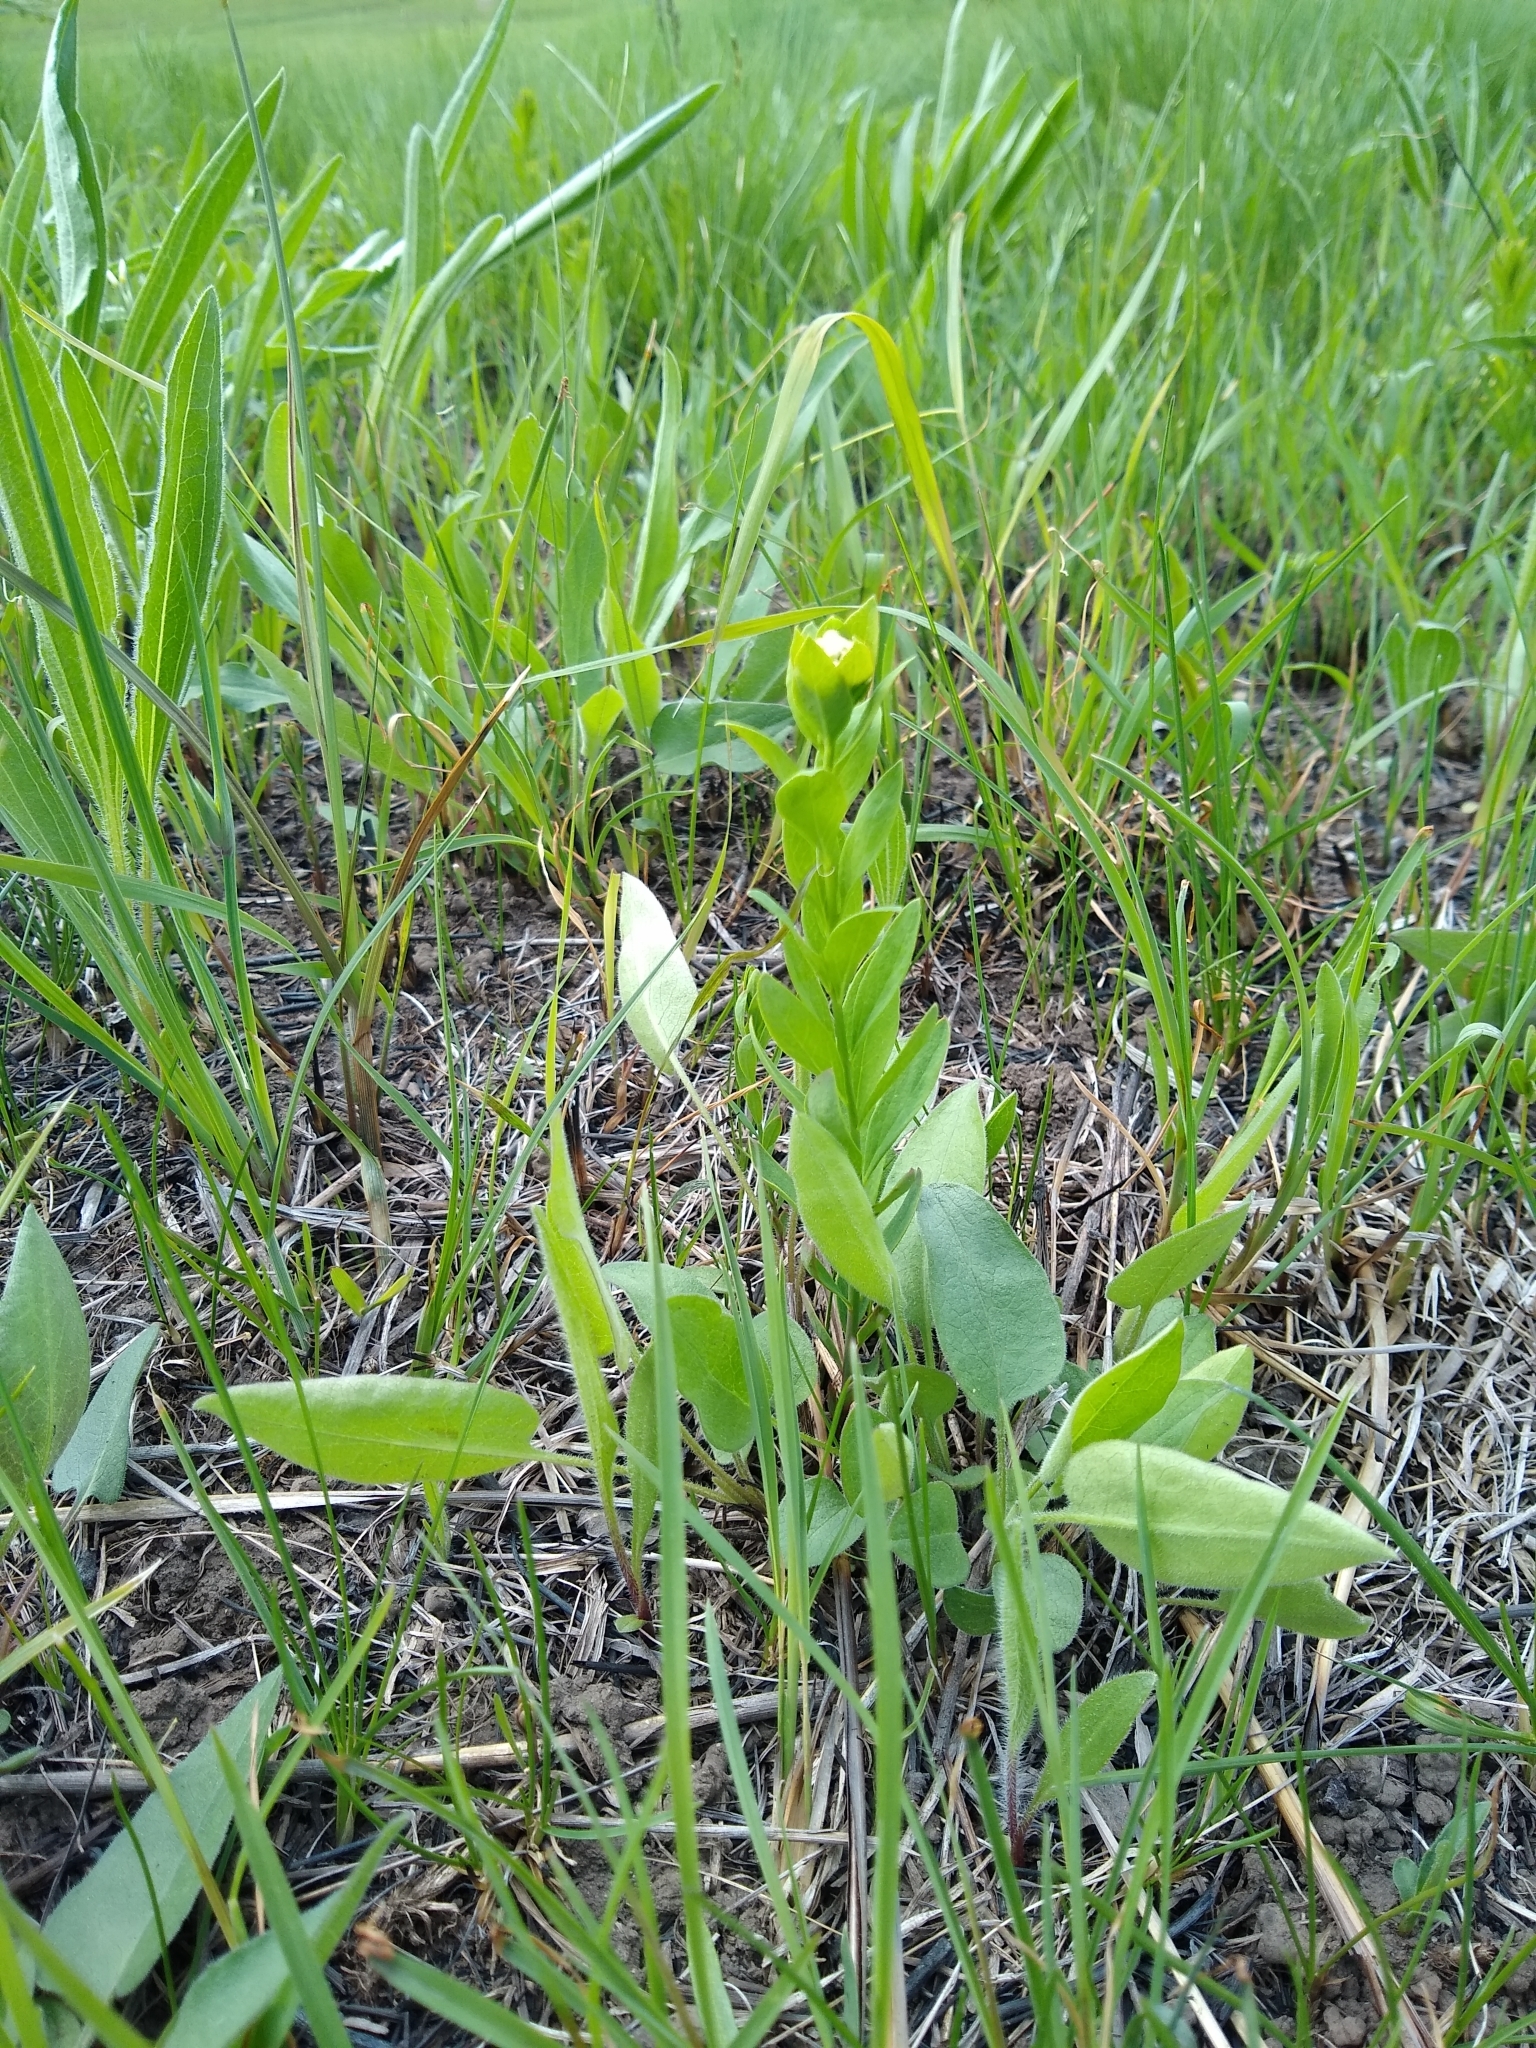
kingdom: Plantae
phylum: Tracheophyta
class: Magnoliopsida
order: Santalales
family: Comandraceae
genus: Comandra
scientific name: Comandra umbellata
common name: Bastard toadflax
